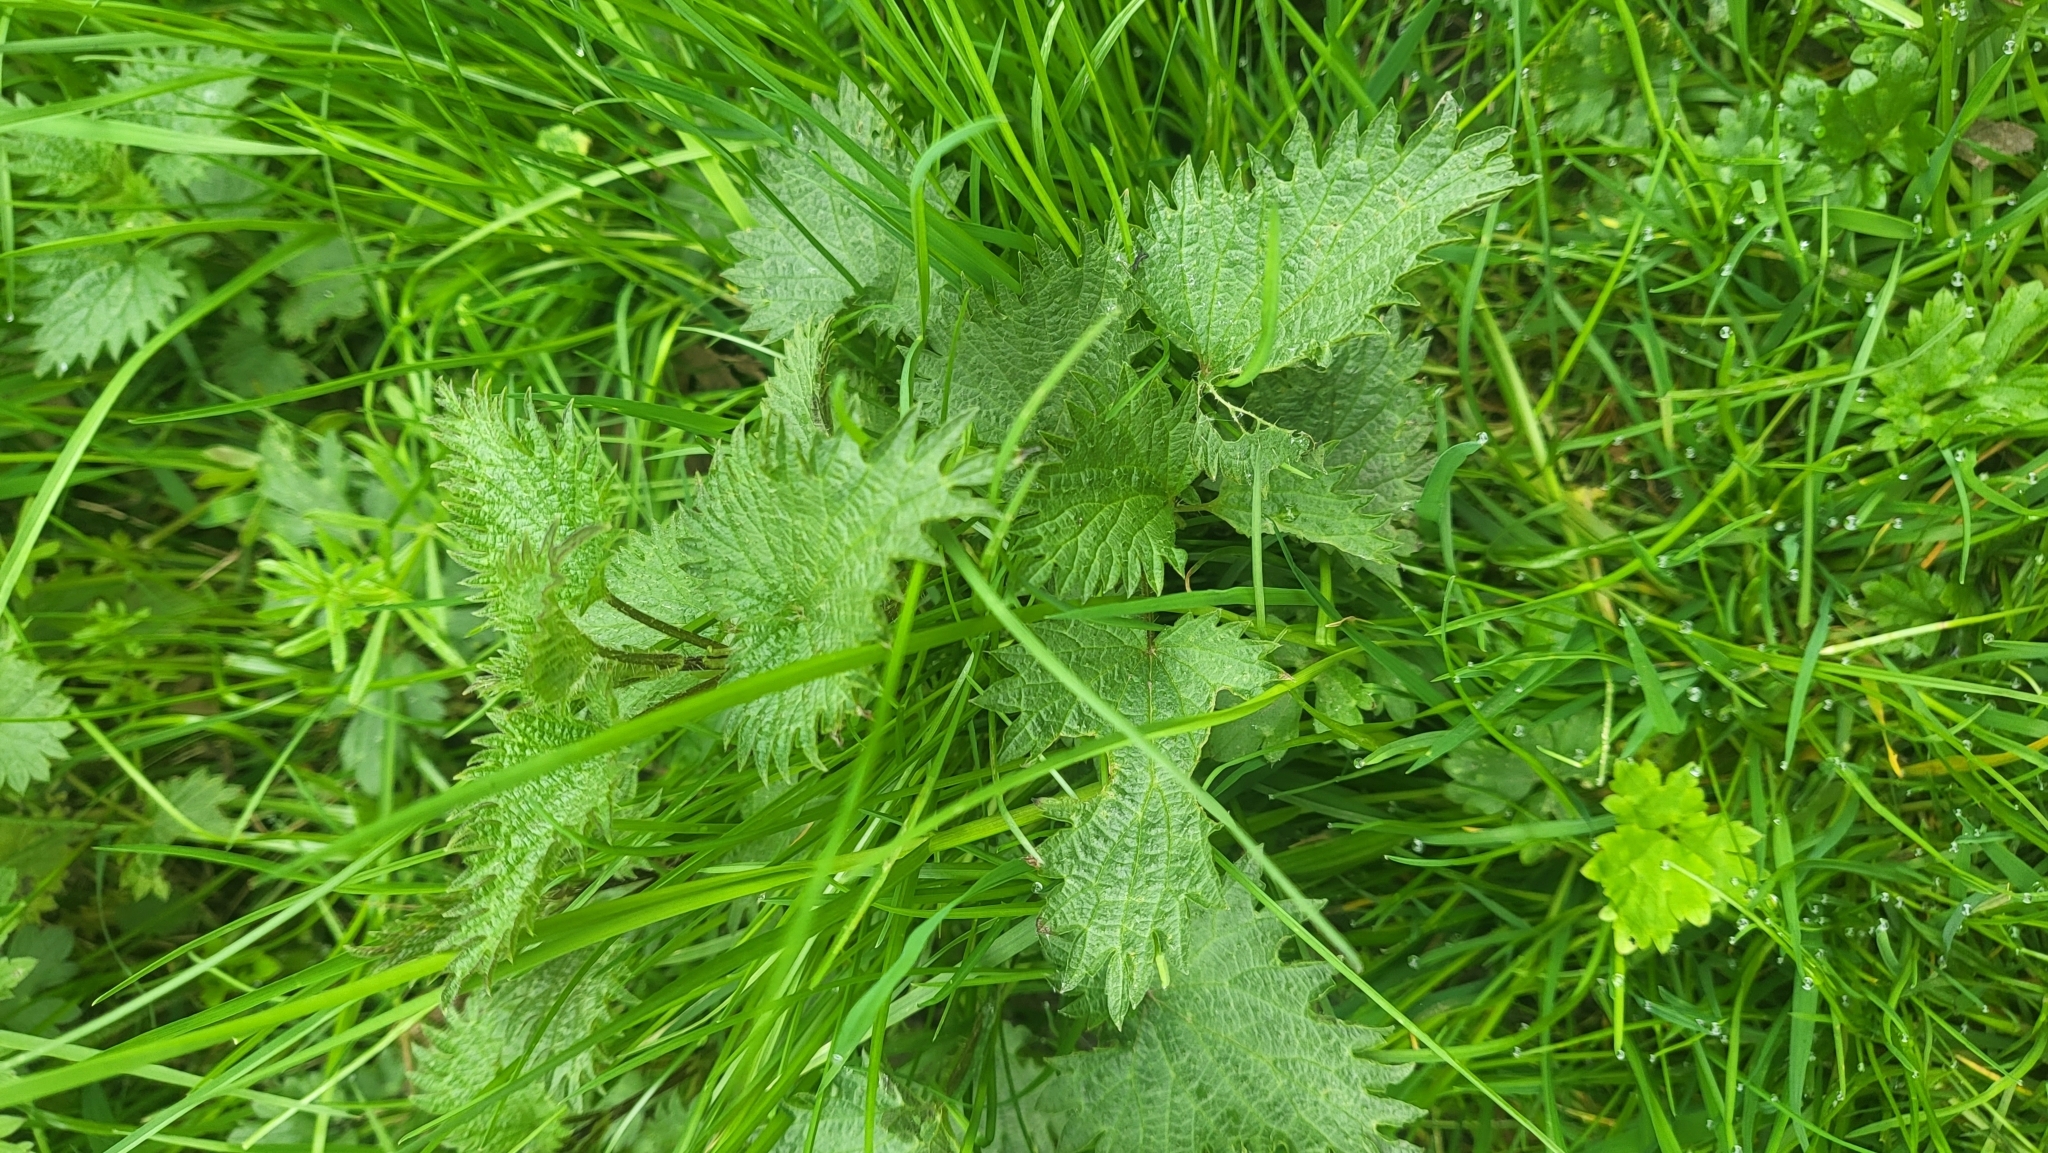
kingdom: Fungi
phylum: Basidiomycota
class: Pucciniomycetes
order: Pucciniales
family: Pucciniaceae
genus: Puccinia
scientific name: Puccinia urticata
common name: Nettle clustercup rust fungus
